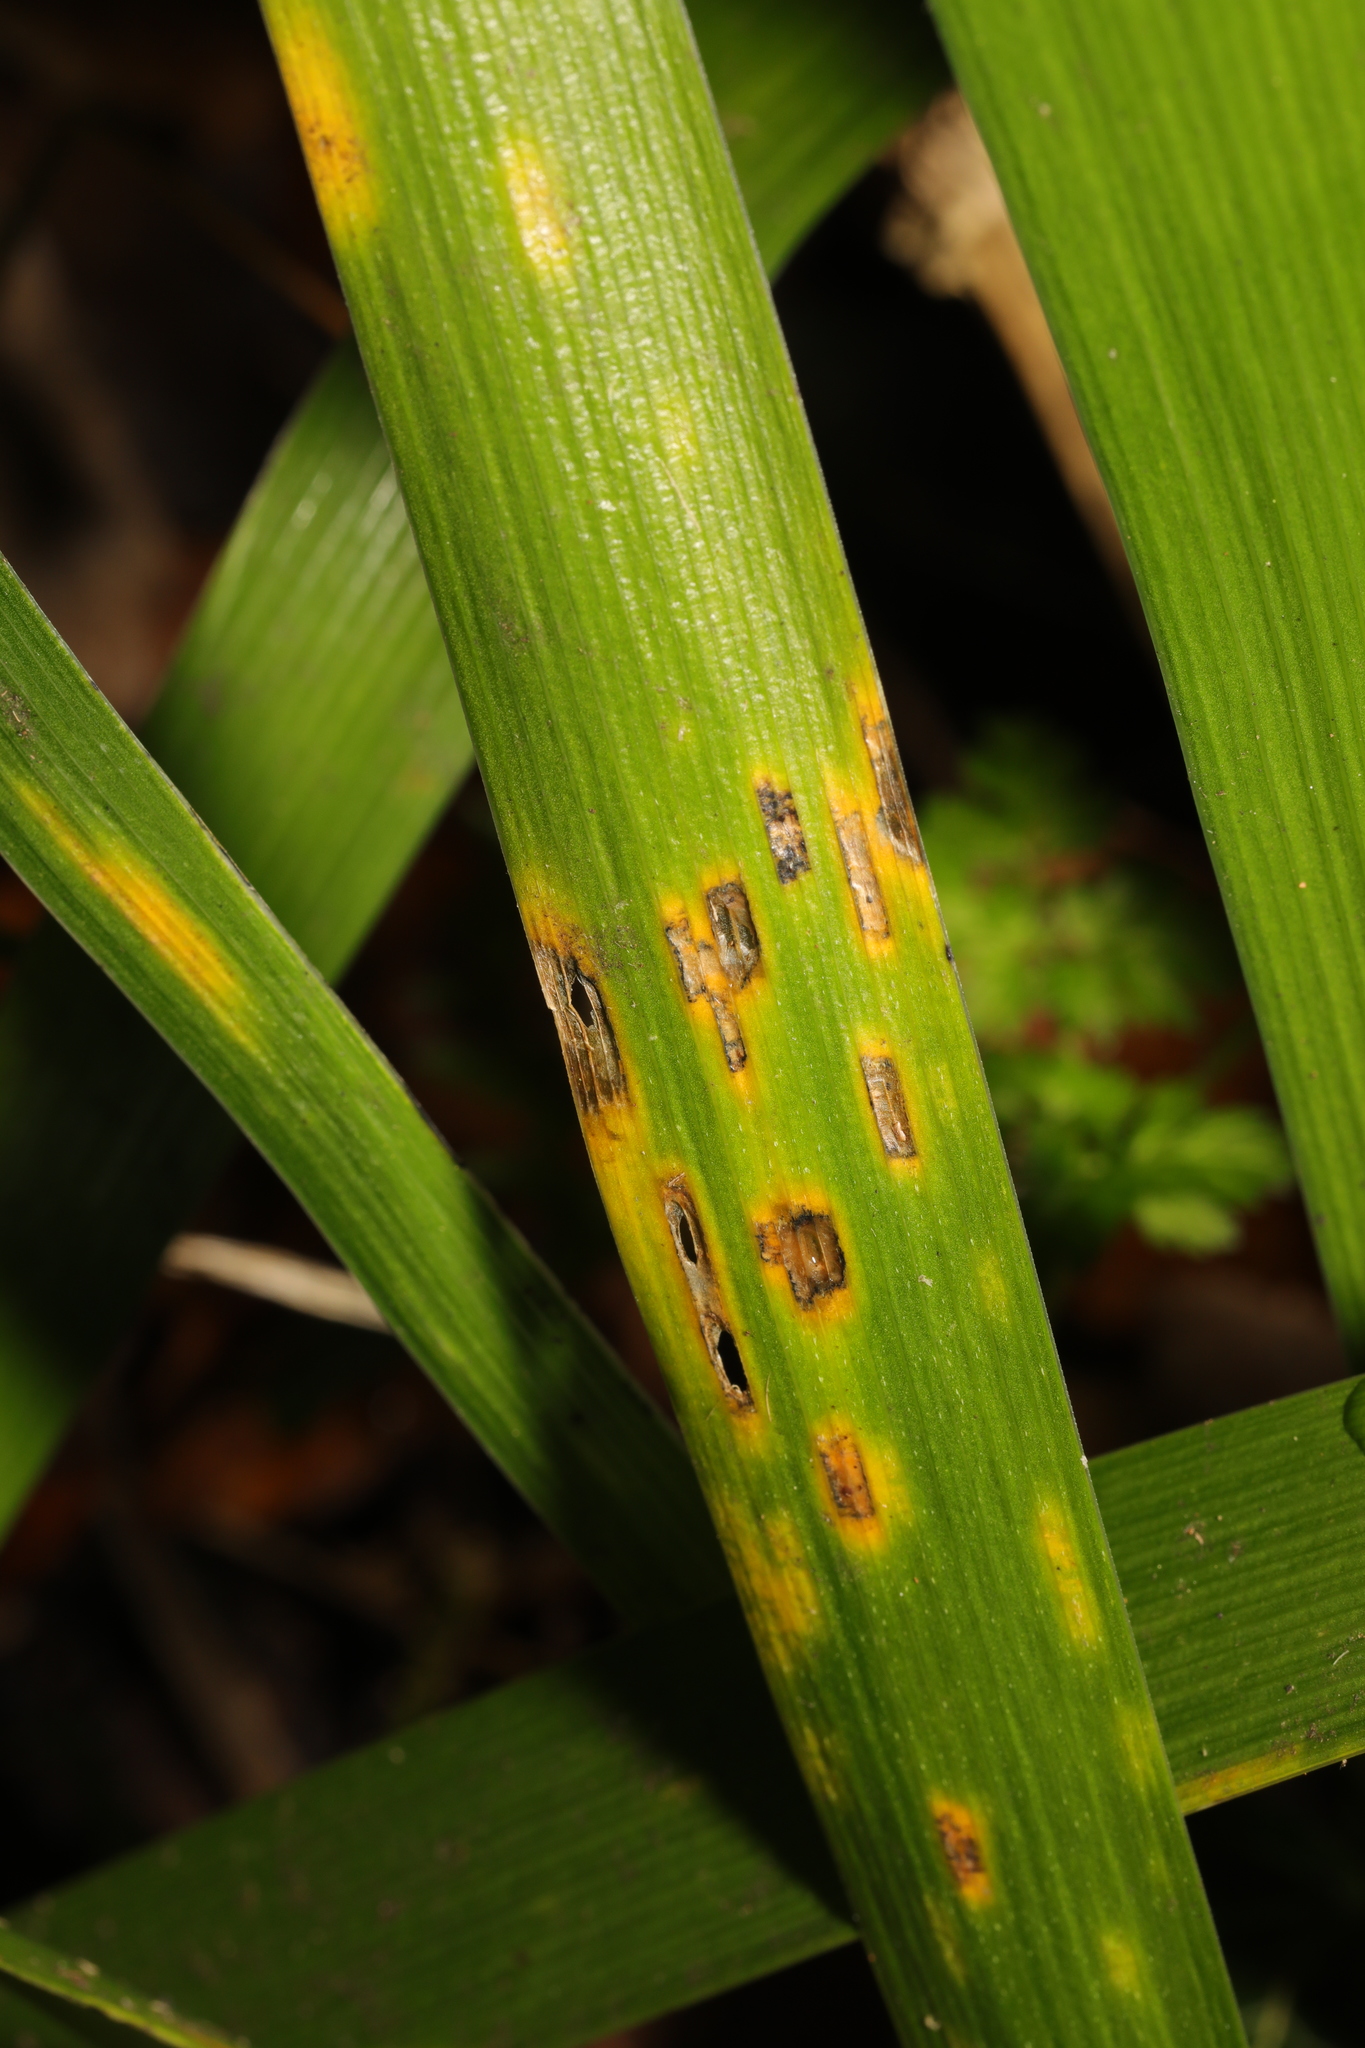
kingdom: Fungi
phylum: Basidiomycota
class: Pucciniomycetes
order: Pucciniales
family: Pucciniaceae
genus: Puccinia
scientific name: Puccinia iridis
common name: Iris rust
